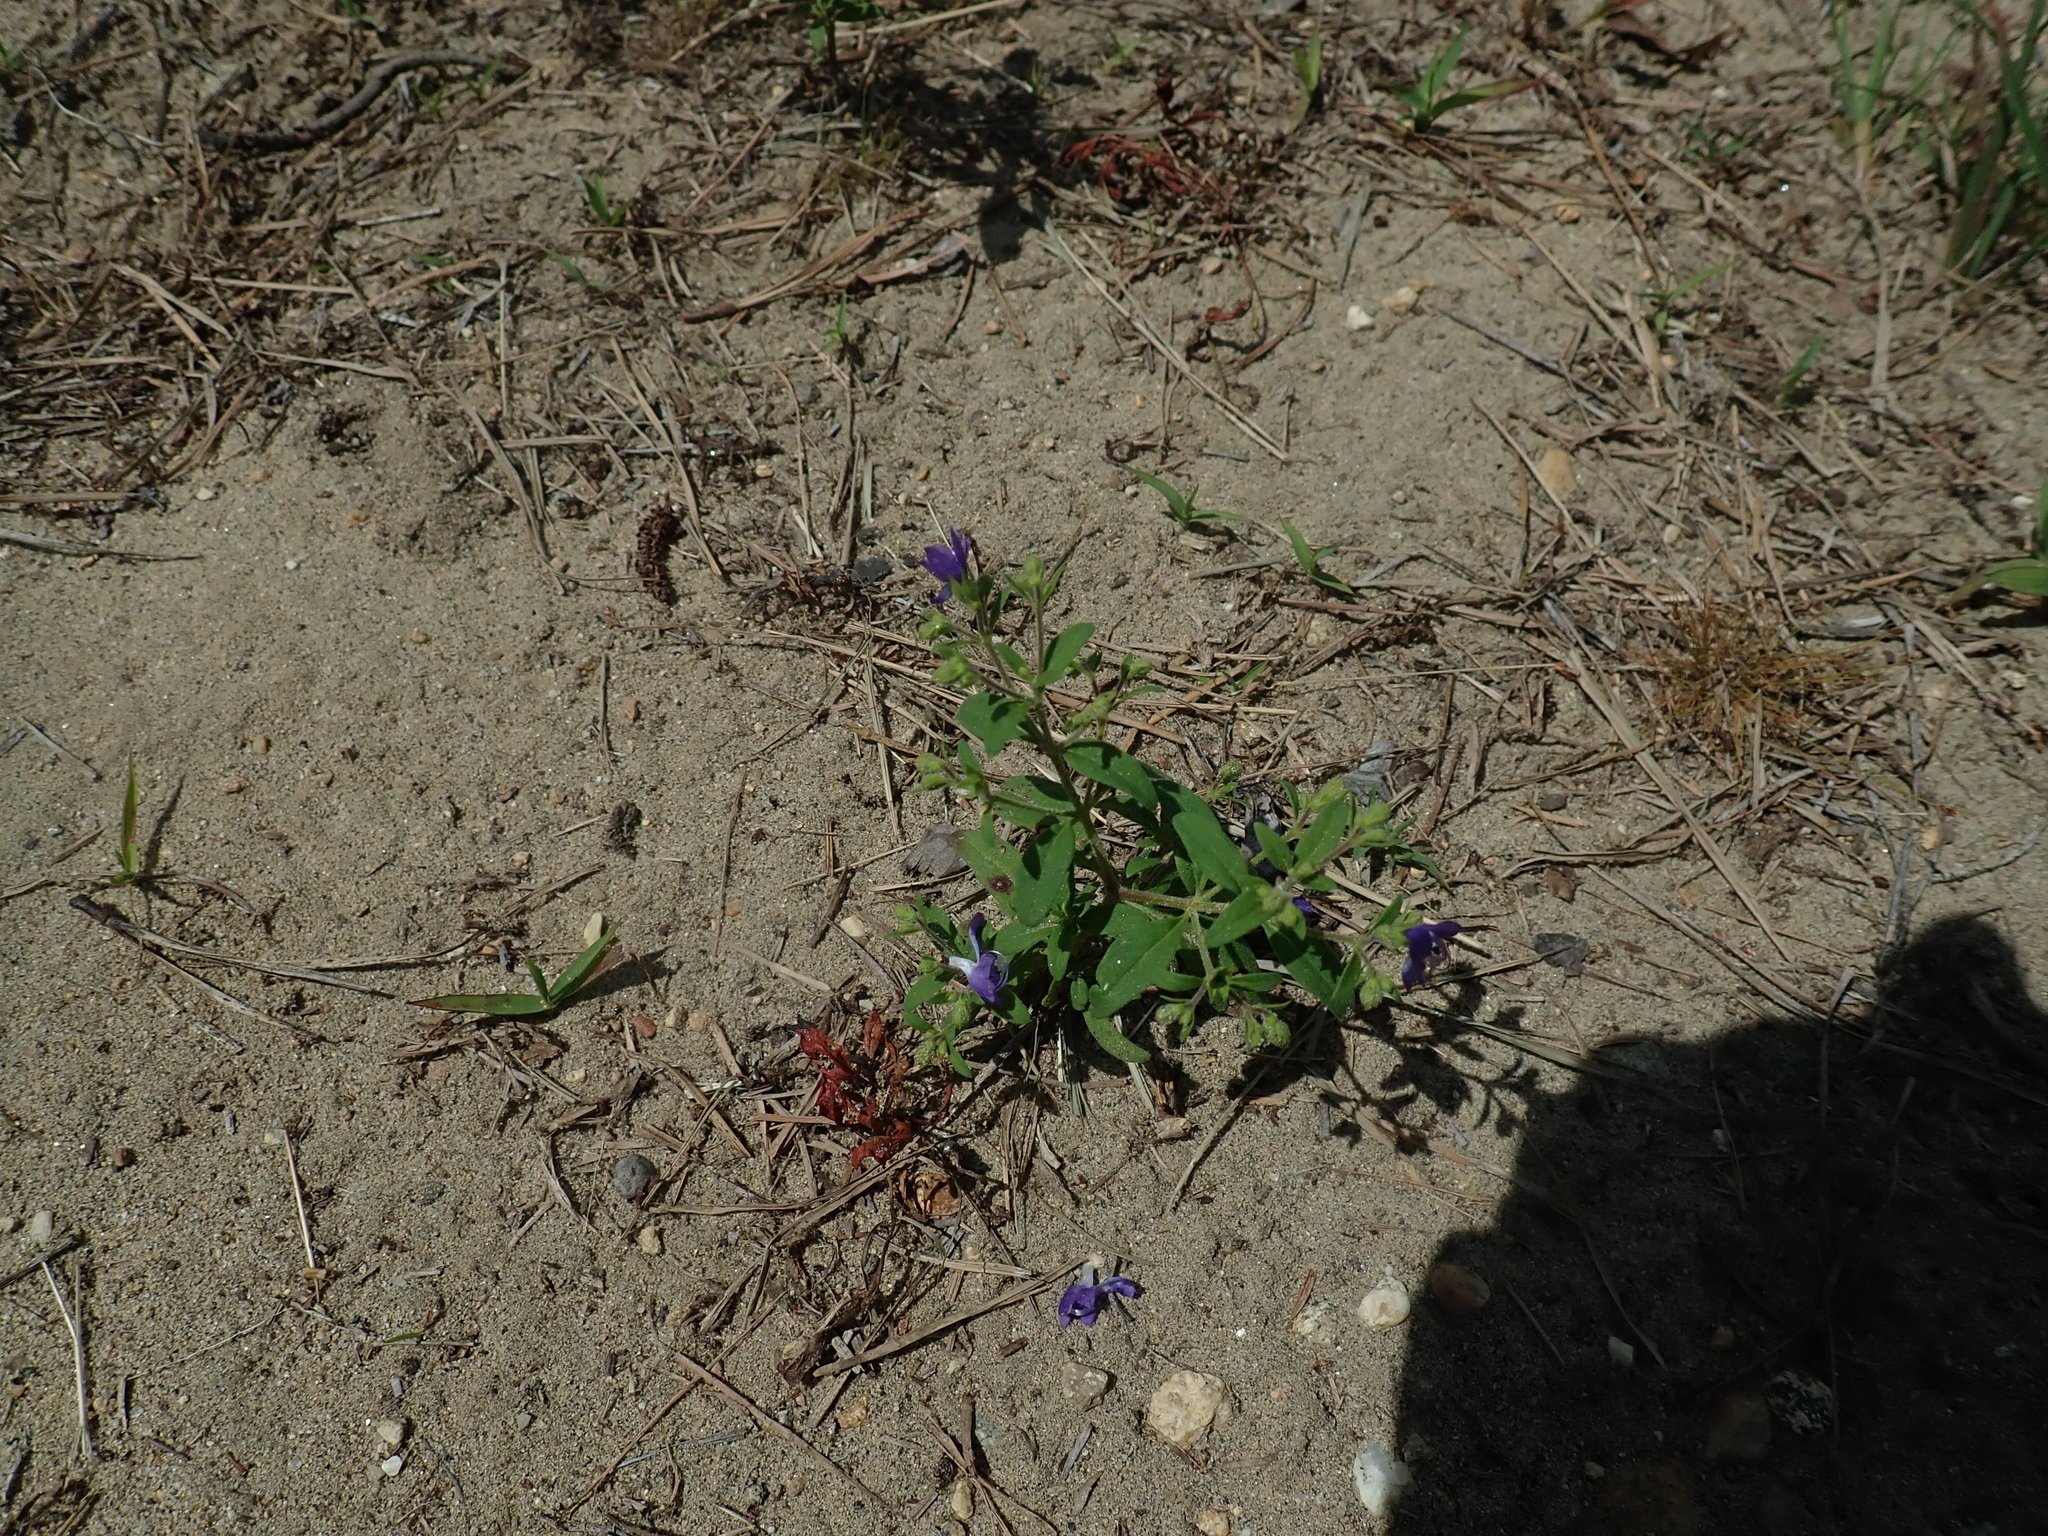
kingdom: Plantae
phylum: Tracheophyta
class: Magnoliopsida
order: Lamiales
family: Lamiaceae
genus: Trichostema
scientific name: Trichostema dichotomum
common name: Bastard pennyroyal
